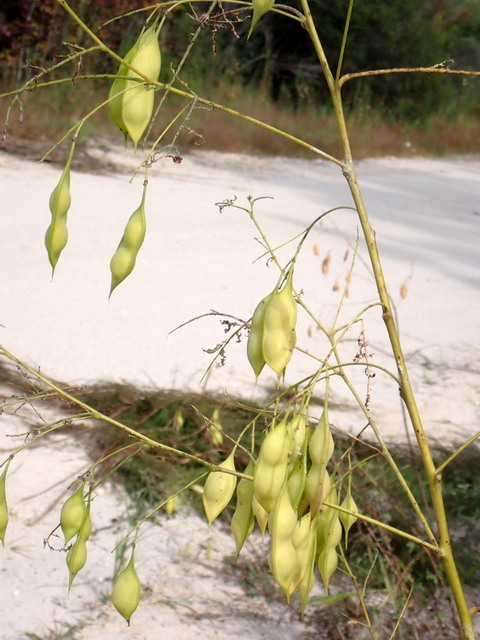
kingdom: Plantae
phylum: Tracheophyta
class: Magnoliopsida
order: Fabales
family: Fabaceae
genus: Sesbania
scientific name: Sesbania vesicaria
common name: Bagpod
